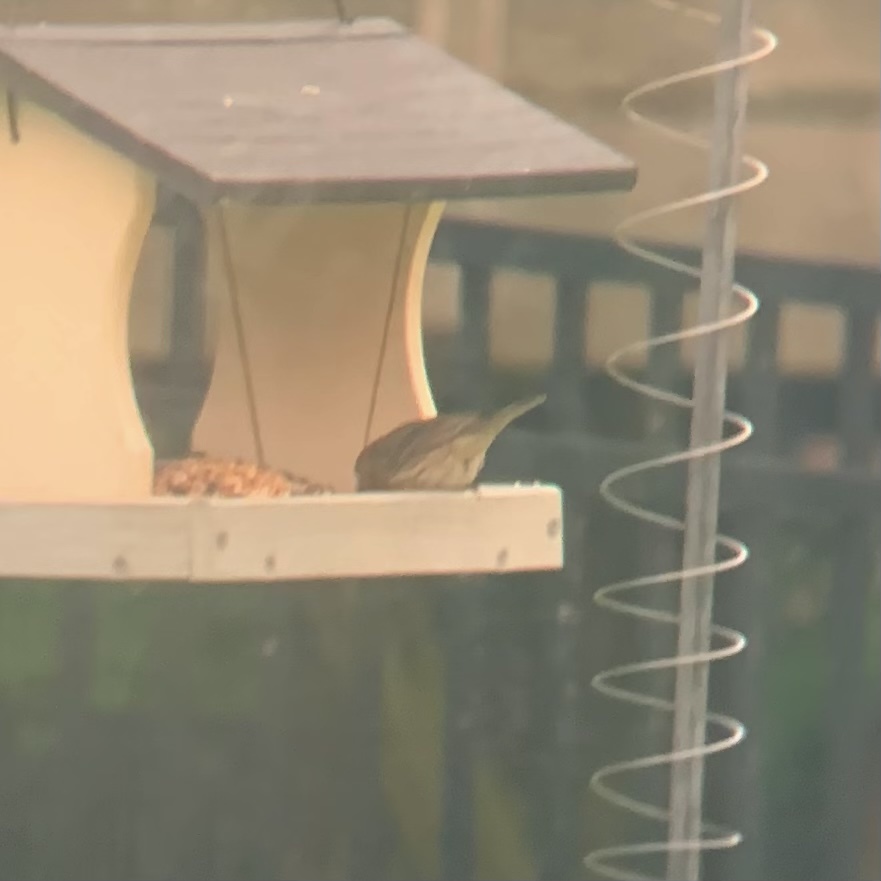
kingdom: Animalia
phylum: Chordata
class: Aves
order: Passeriformes
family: Fringillidae
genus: Haemorhous
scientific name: Haemorhous mexicanus
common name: House finch
